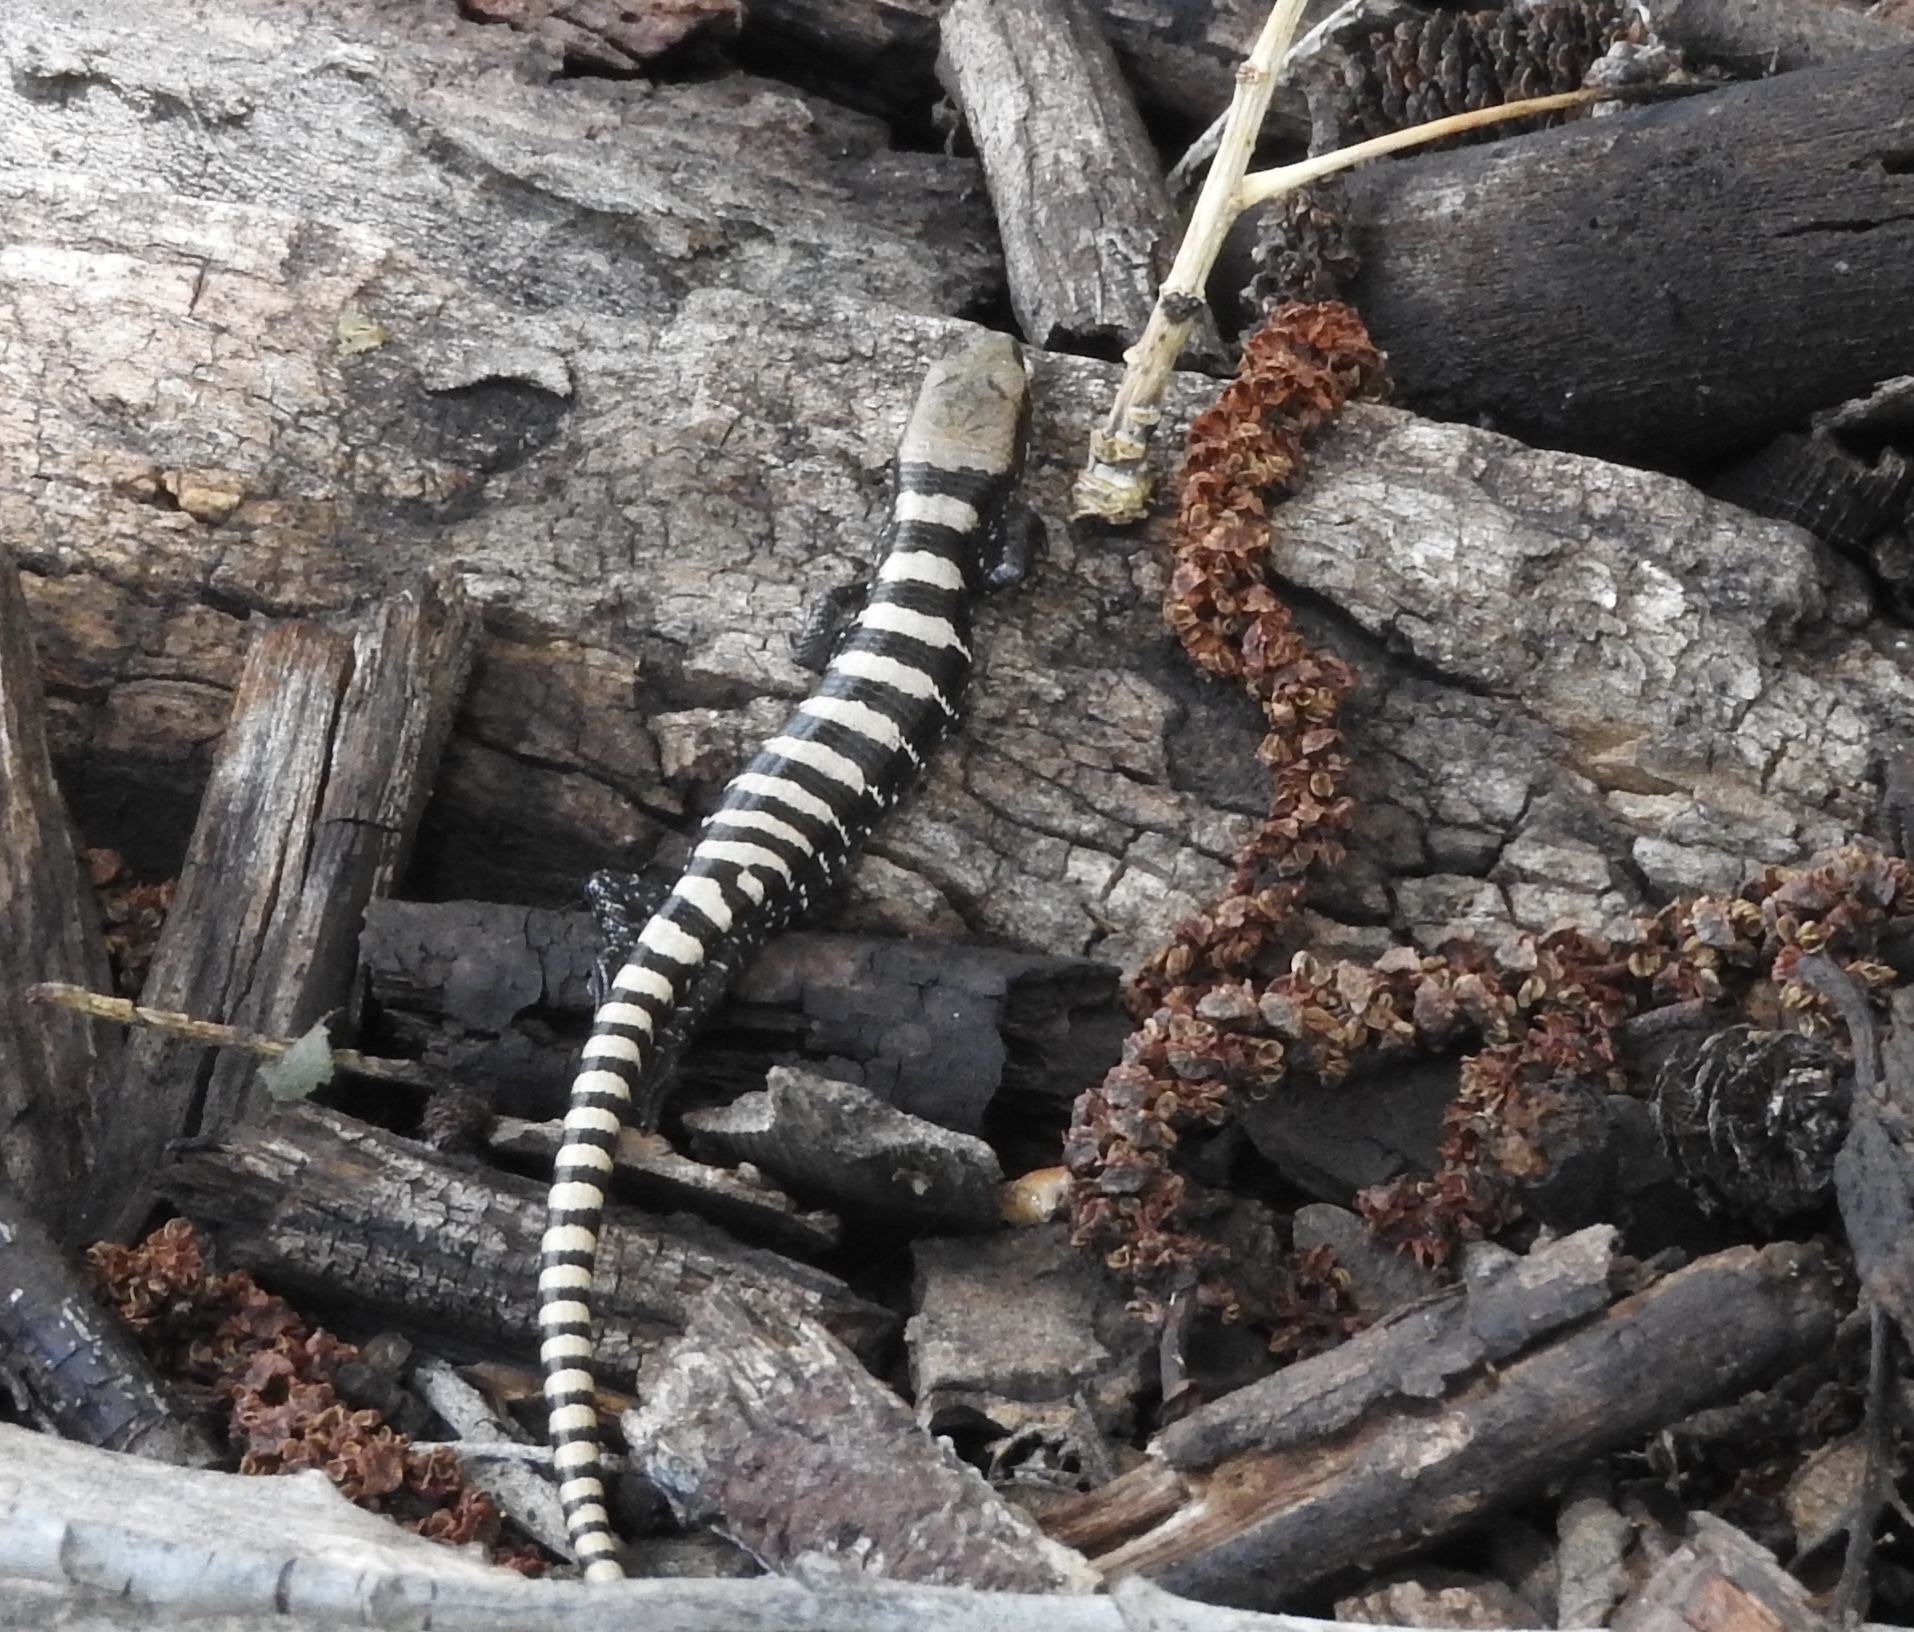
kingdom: Animalia
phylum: Chordata
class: Squamata
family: Anguidae
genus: Elgaria
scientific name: Elgaria kingii
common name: Madrean alligator lizard
